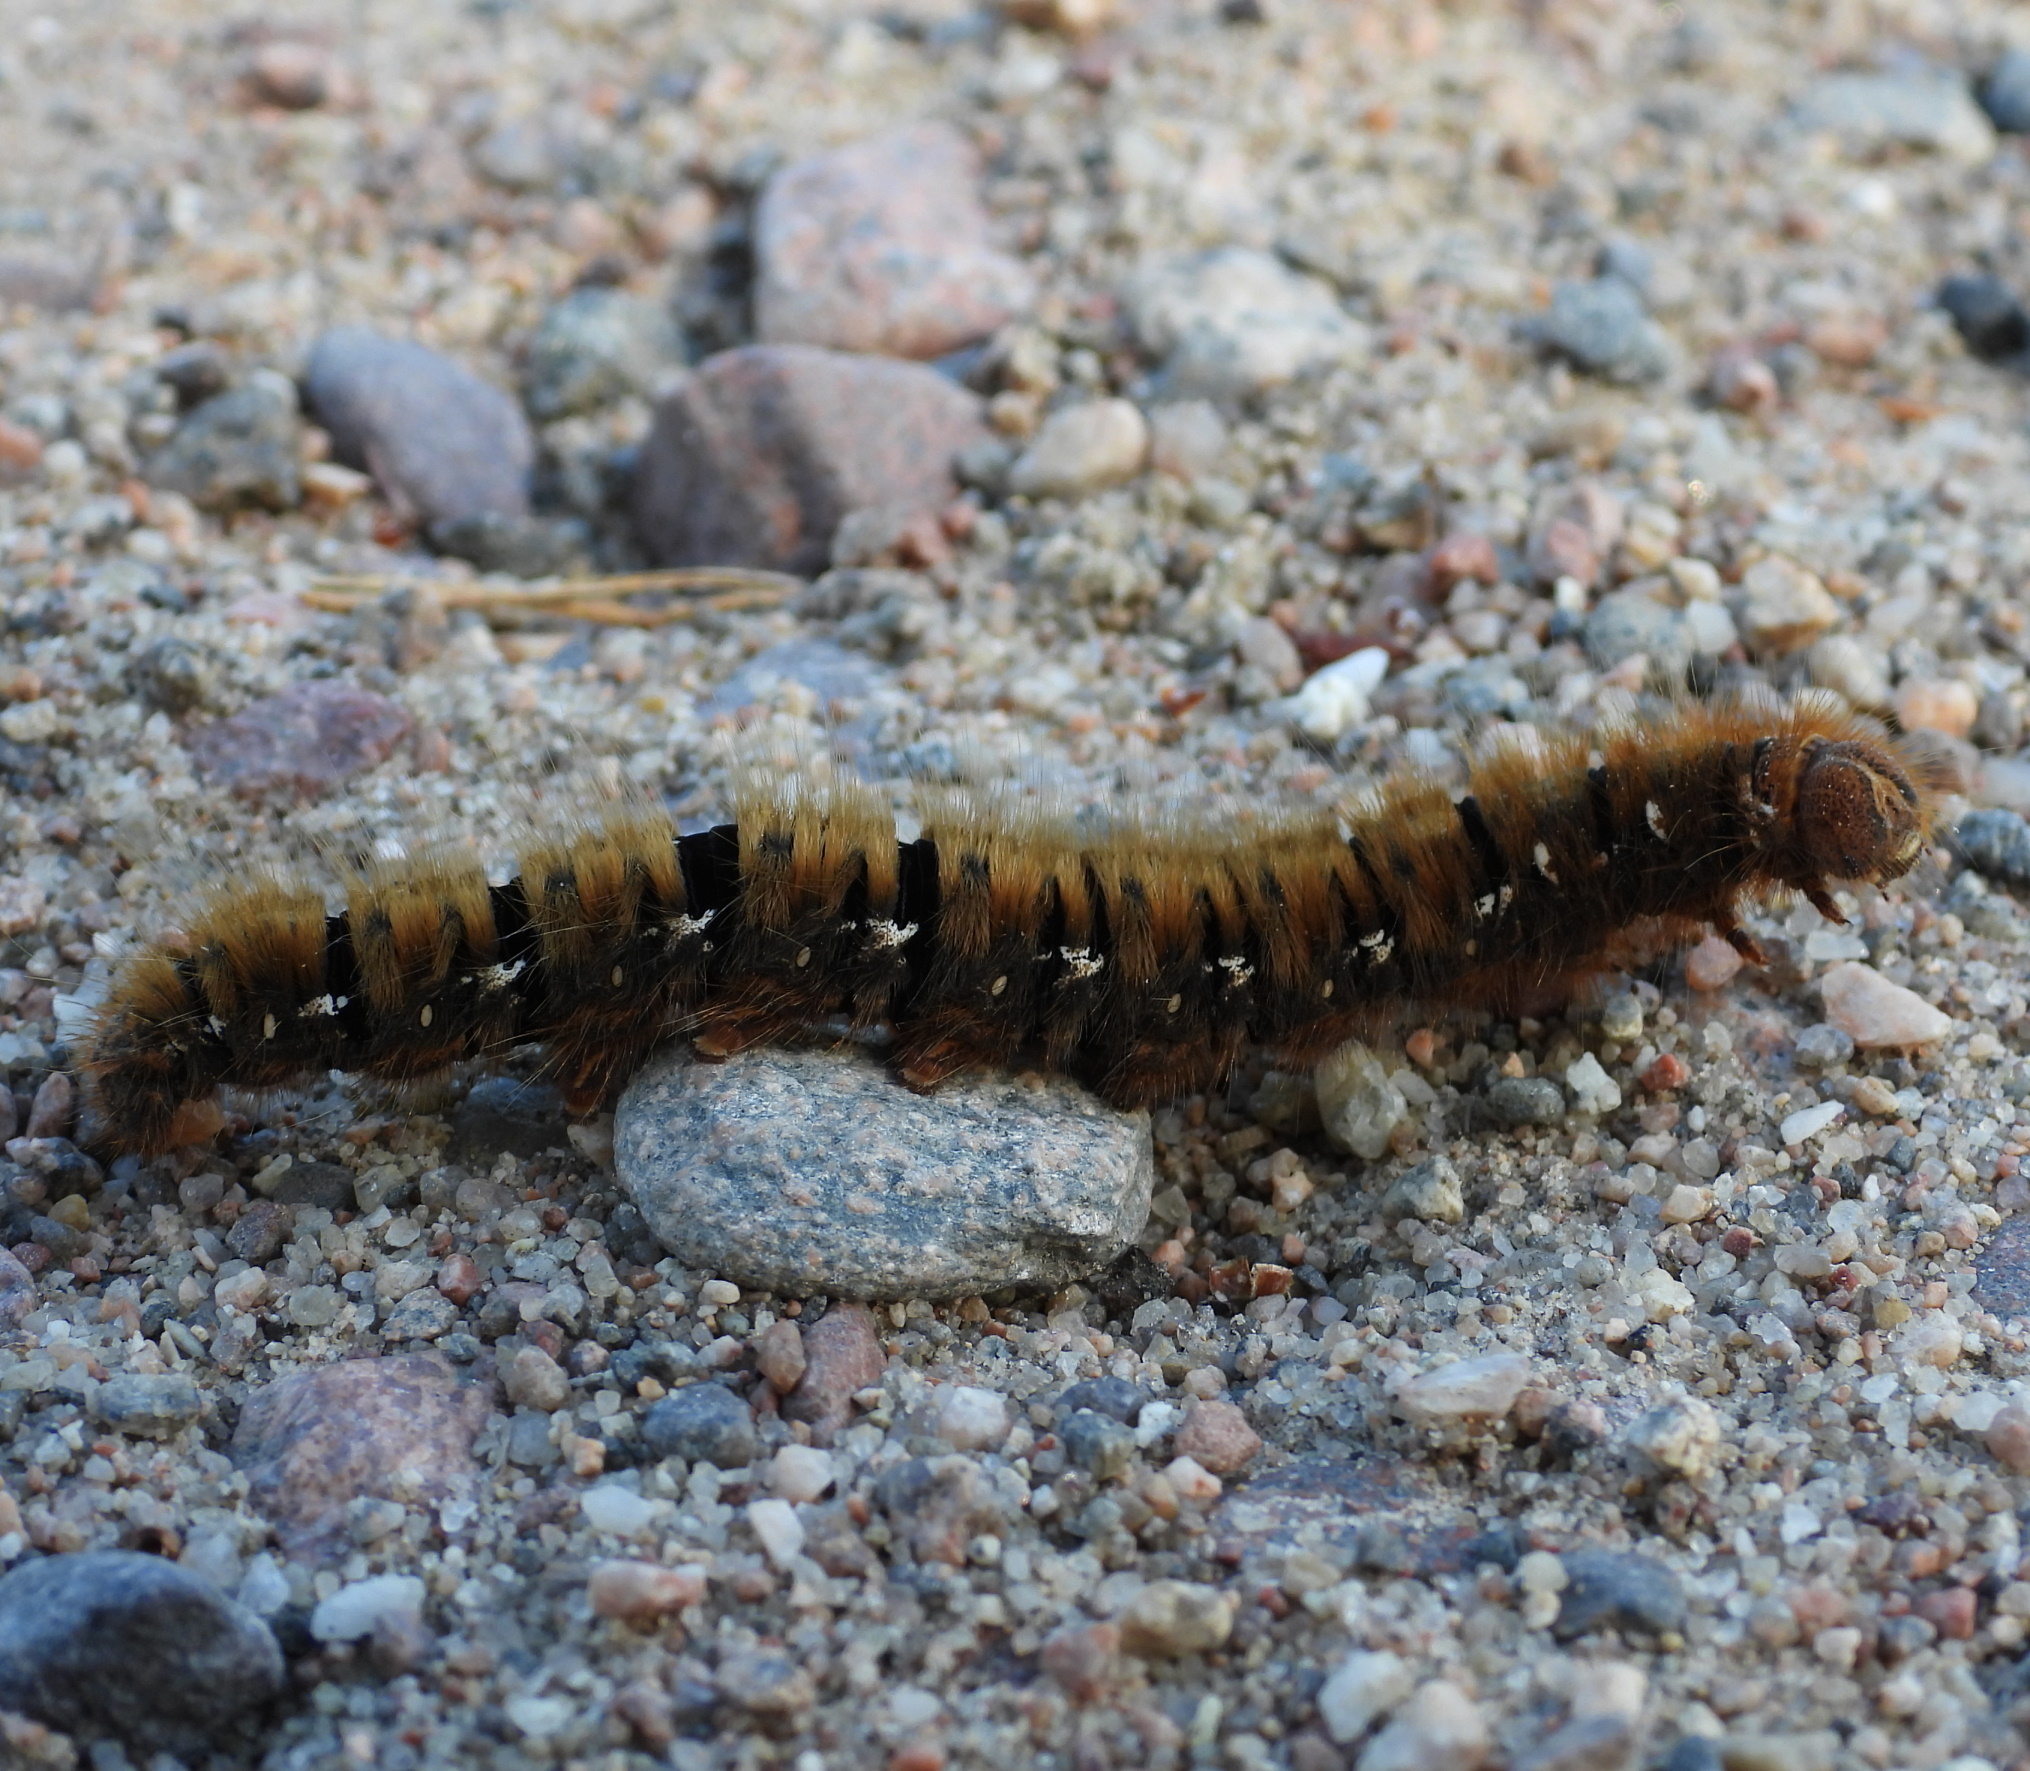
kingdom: Animalia
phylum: Arthropoda
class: Insecta
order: Lepidoptera
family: Lasiocampidae
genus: Lasiocampa
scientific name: Lasiocampa quercus
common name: Oak eggar
